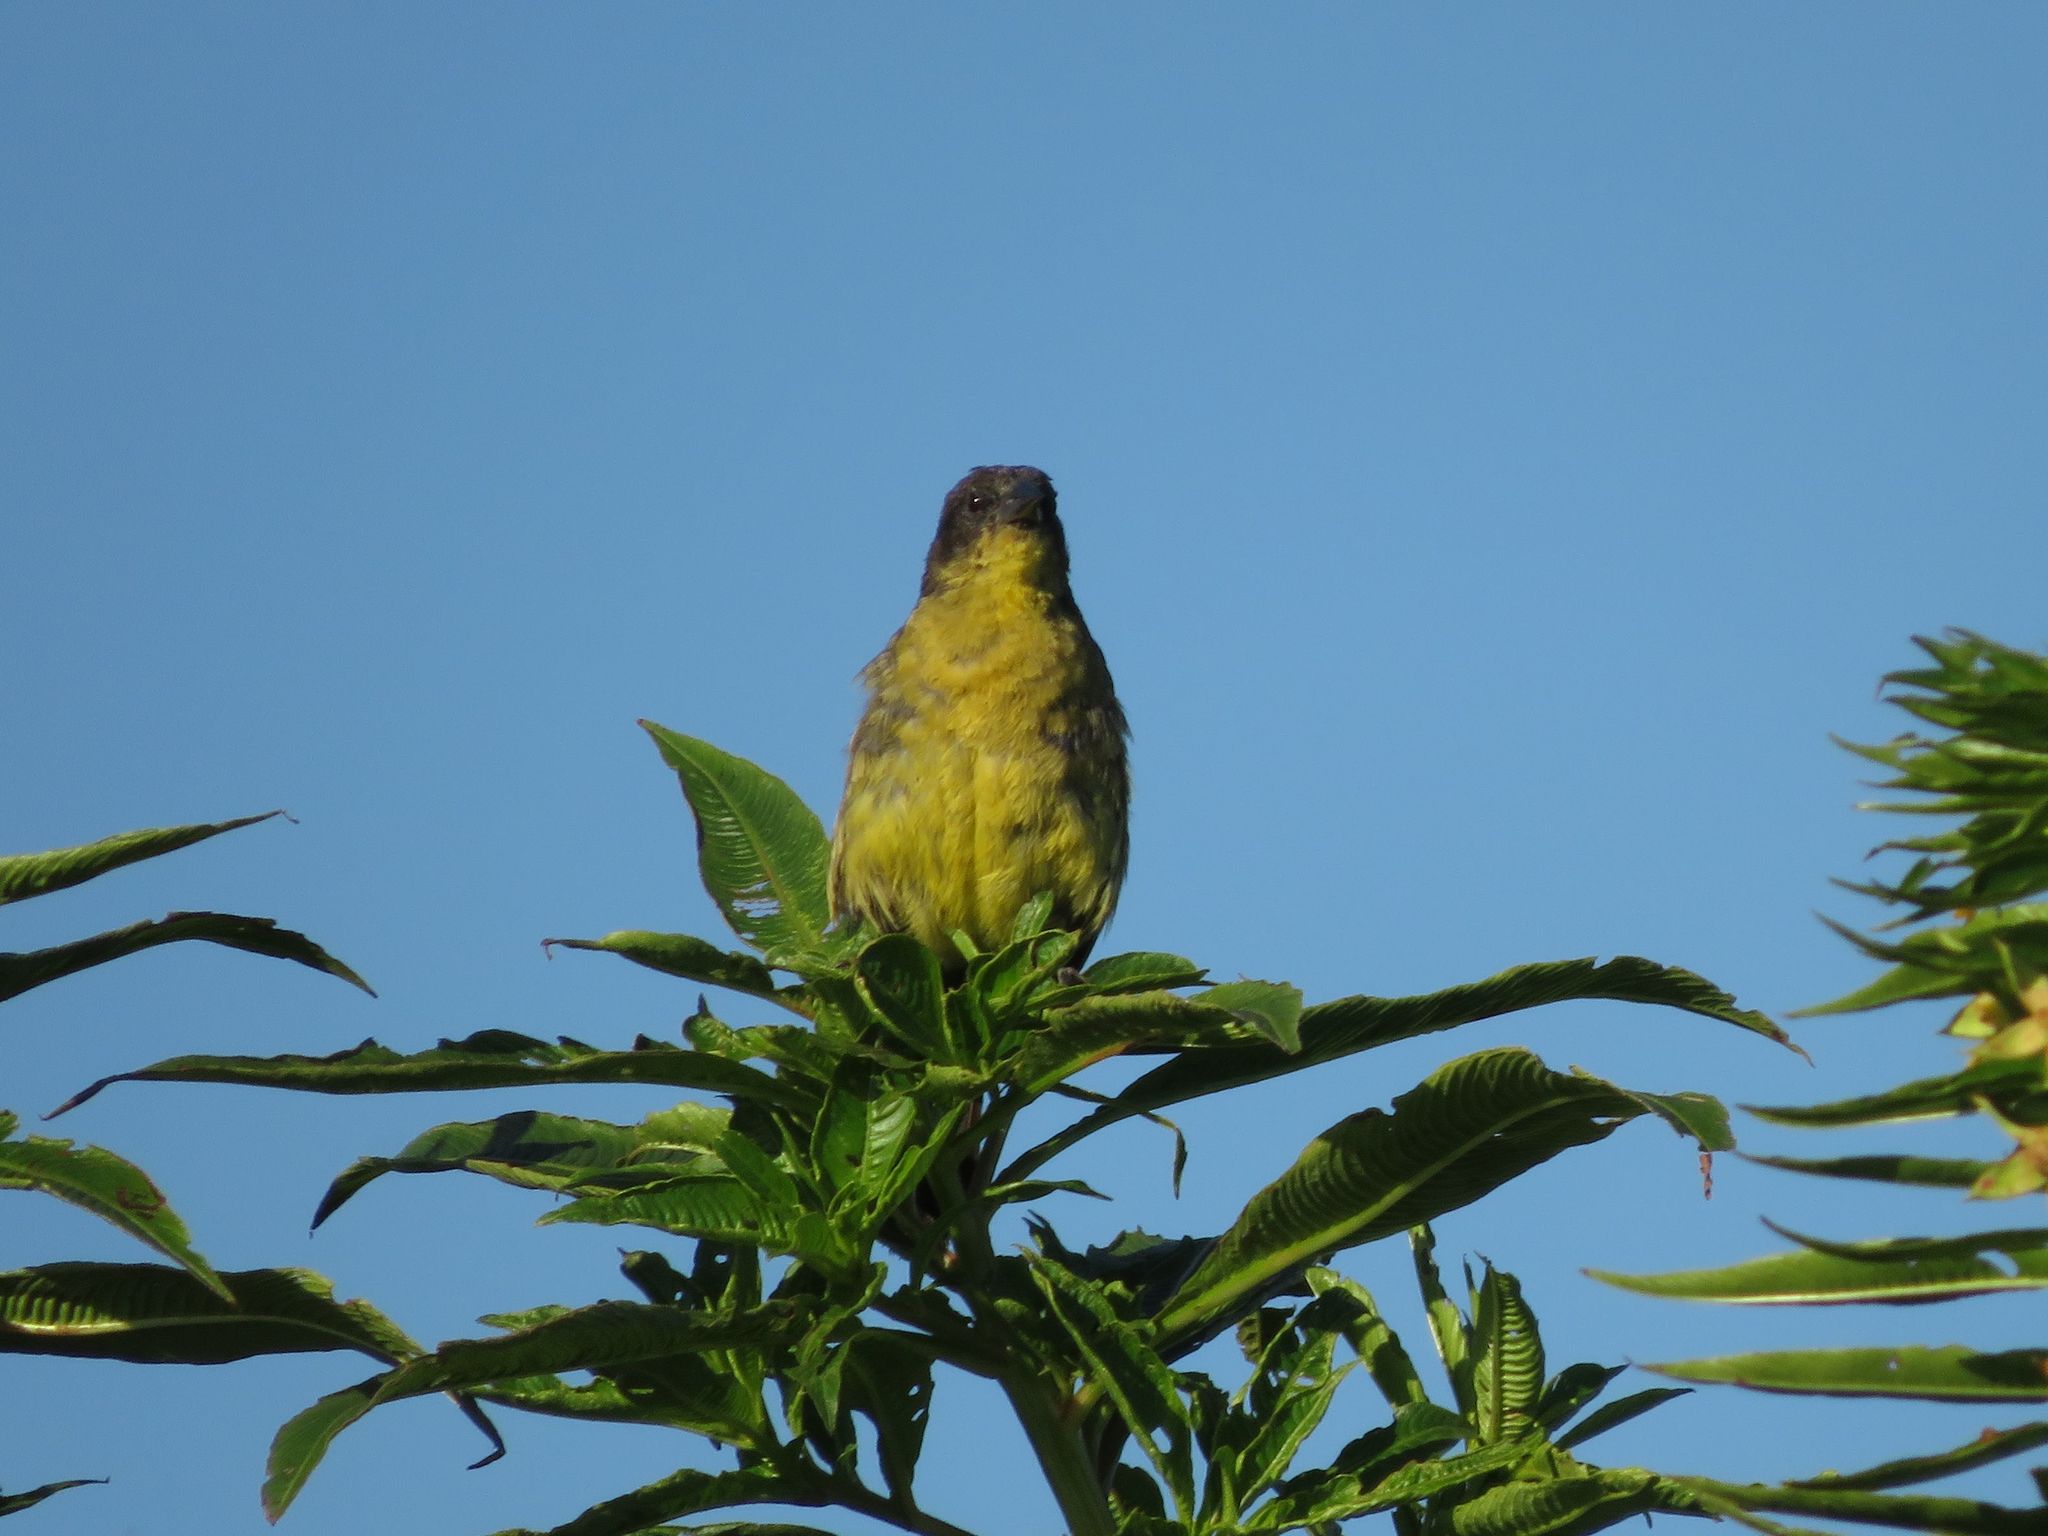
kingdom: Animalia
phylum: Chordata
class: Aves
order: Passeriformes
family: Icteridae
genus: Agelasticus
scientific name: Agelasticus cyanopus
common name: Unicolored blackbird
